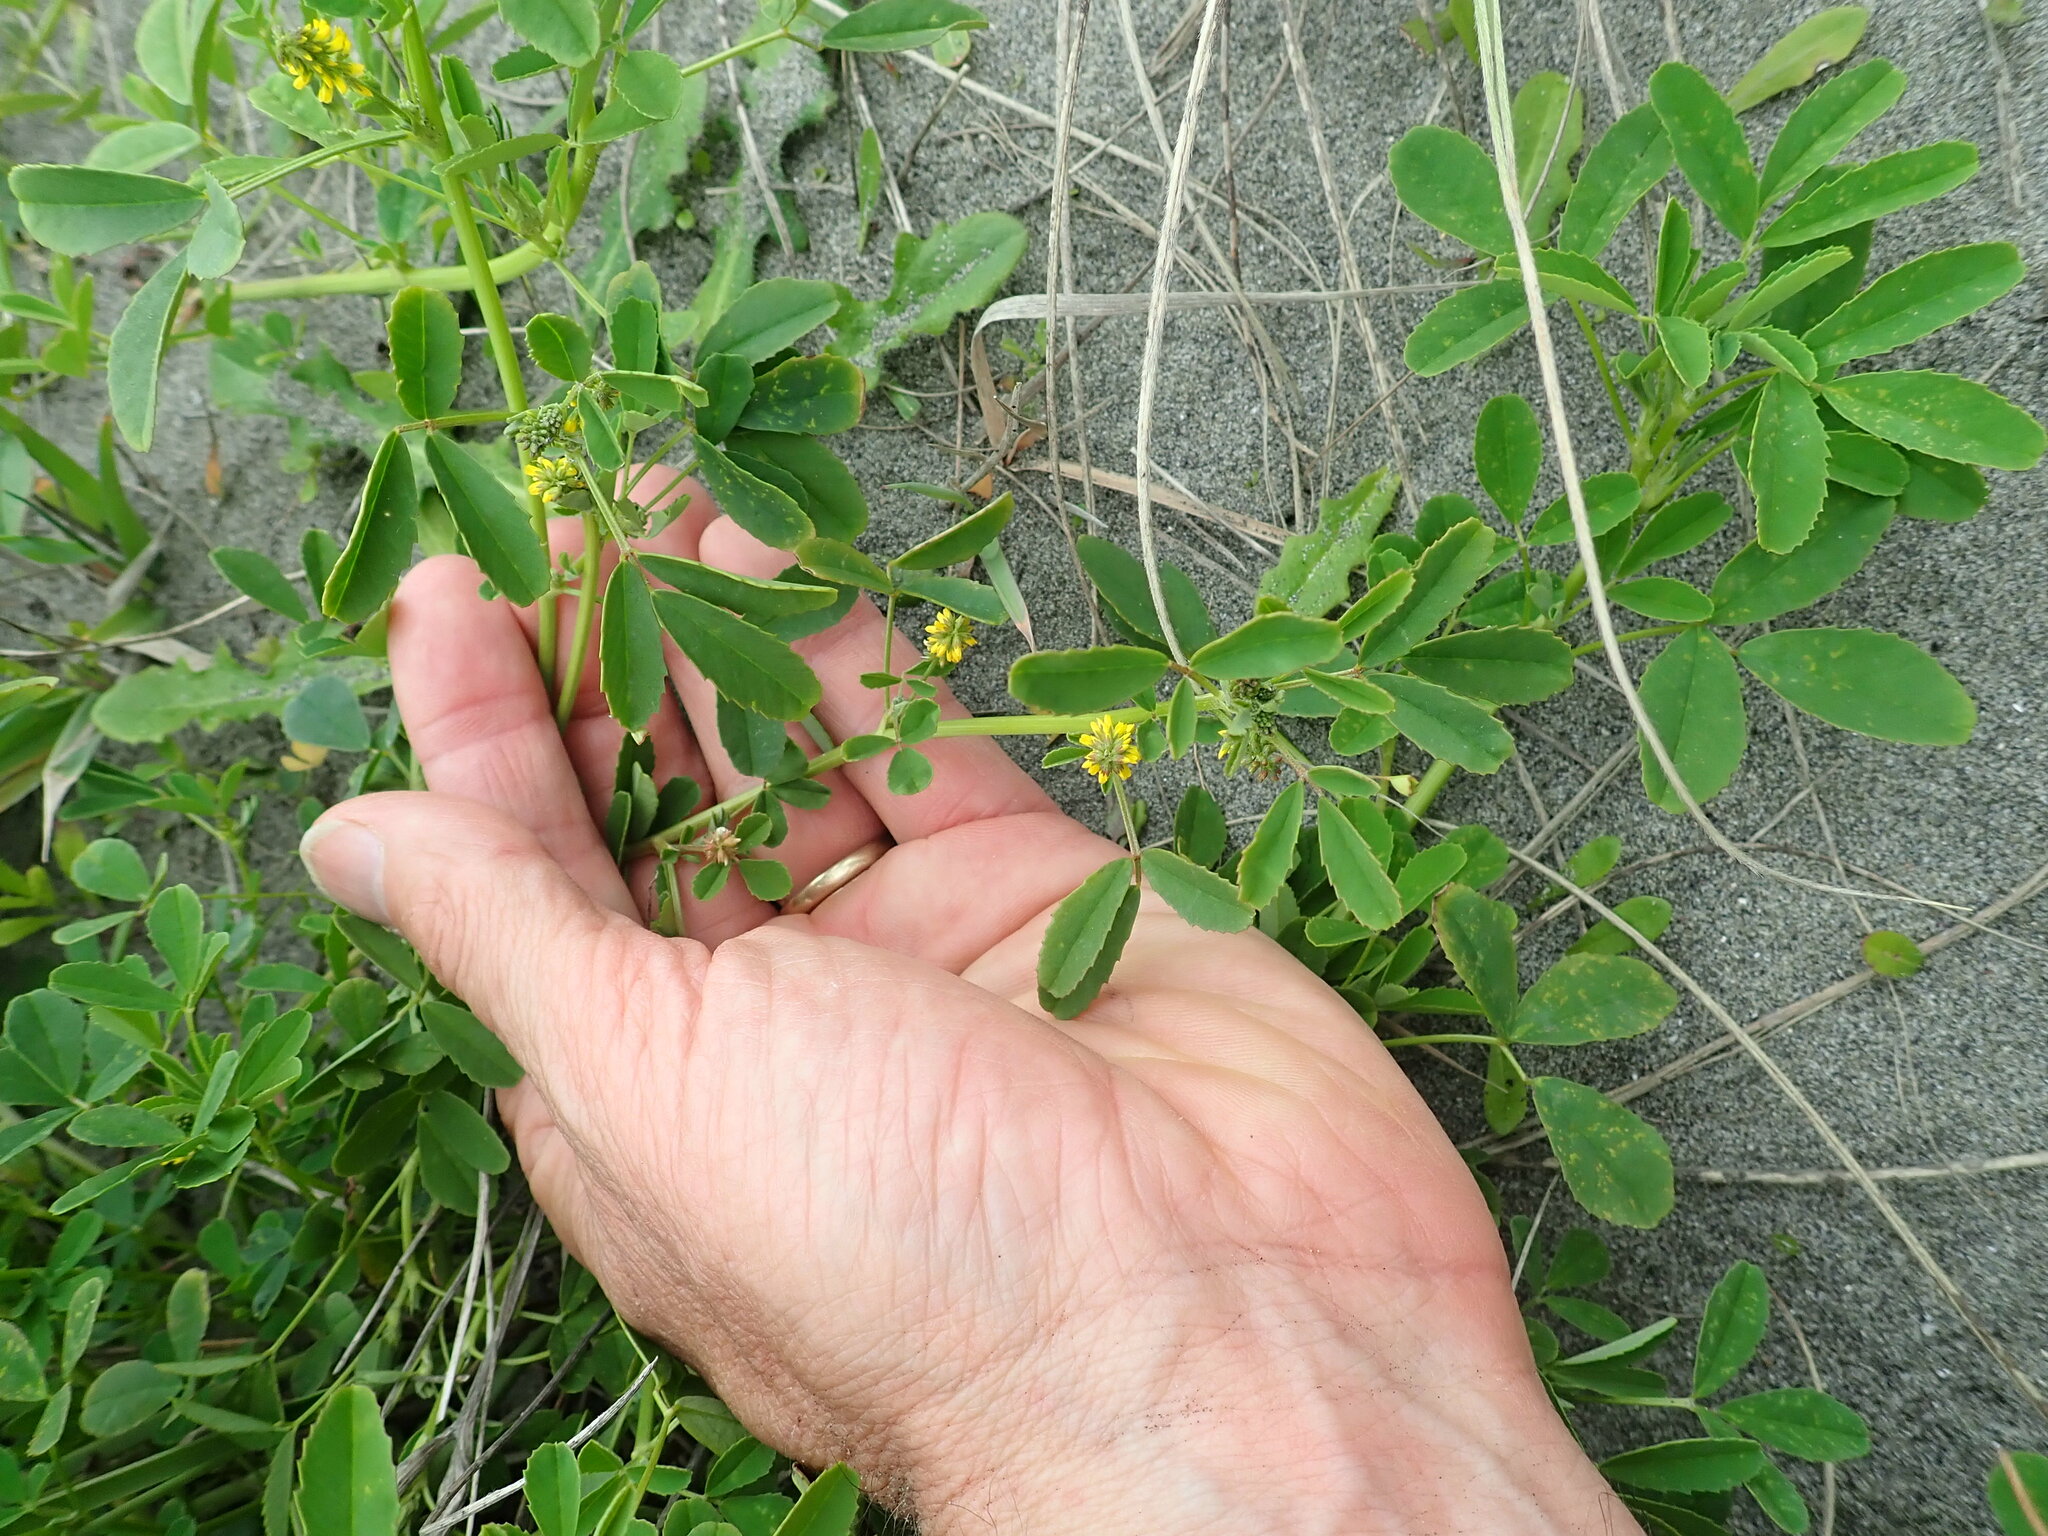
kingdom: Plantae
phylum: Tracheophyta
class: Magnoliopsida
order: Fabales
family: Fabaceae
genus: Melilotus
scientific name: Melilotus indicus
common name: Small melilot
